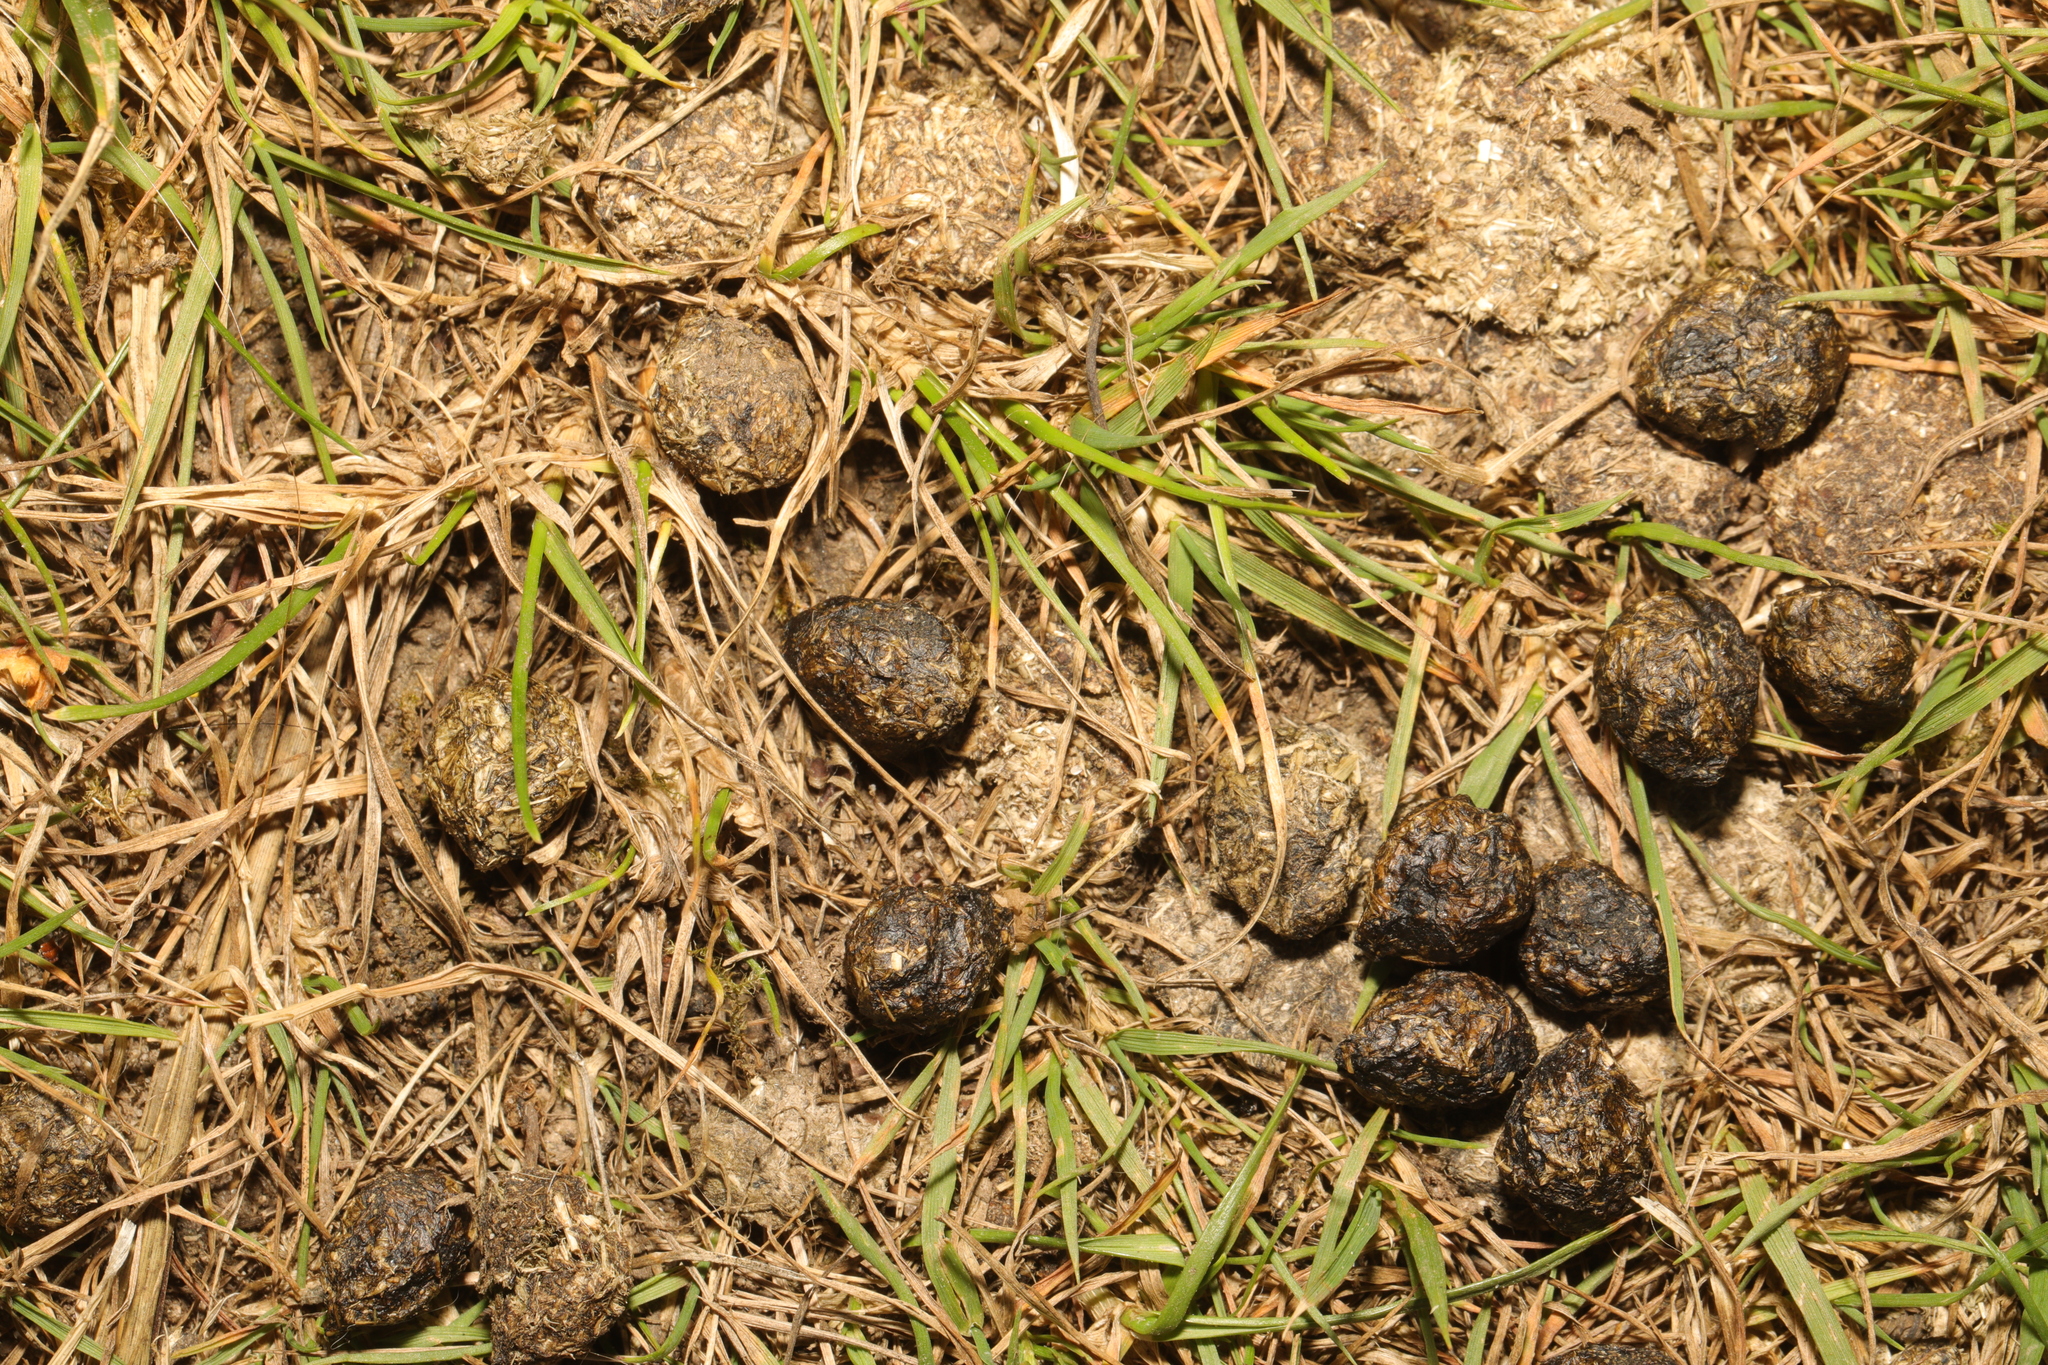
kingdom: Animalia
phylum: Chordata
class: Mammalia
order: Lagomorpha
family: Leporidae
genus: Oryctolagus
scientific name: Oryctolagus cuniculus
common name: European rabbit
